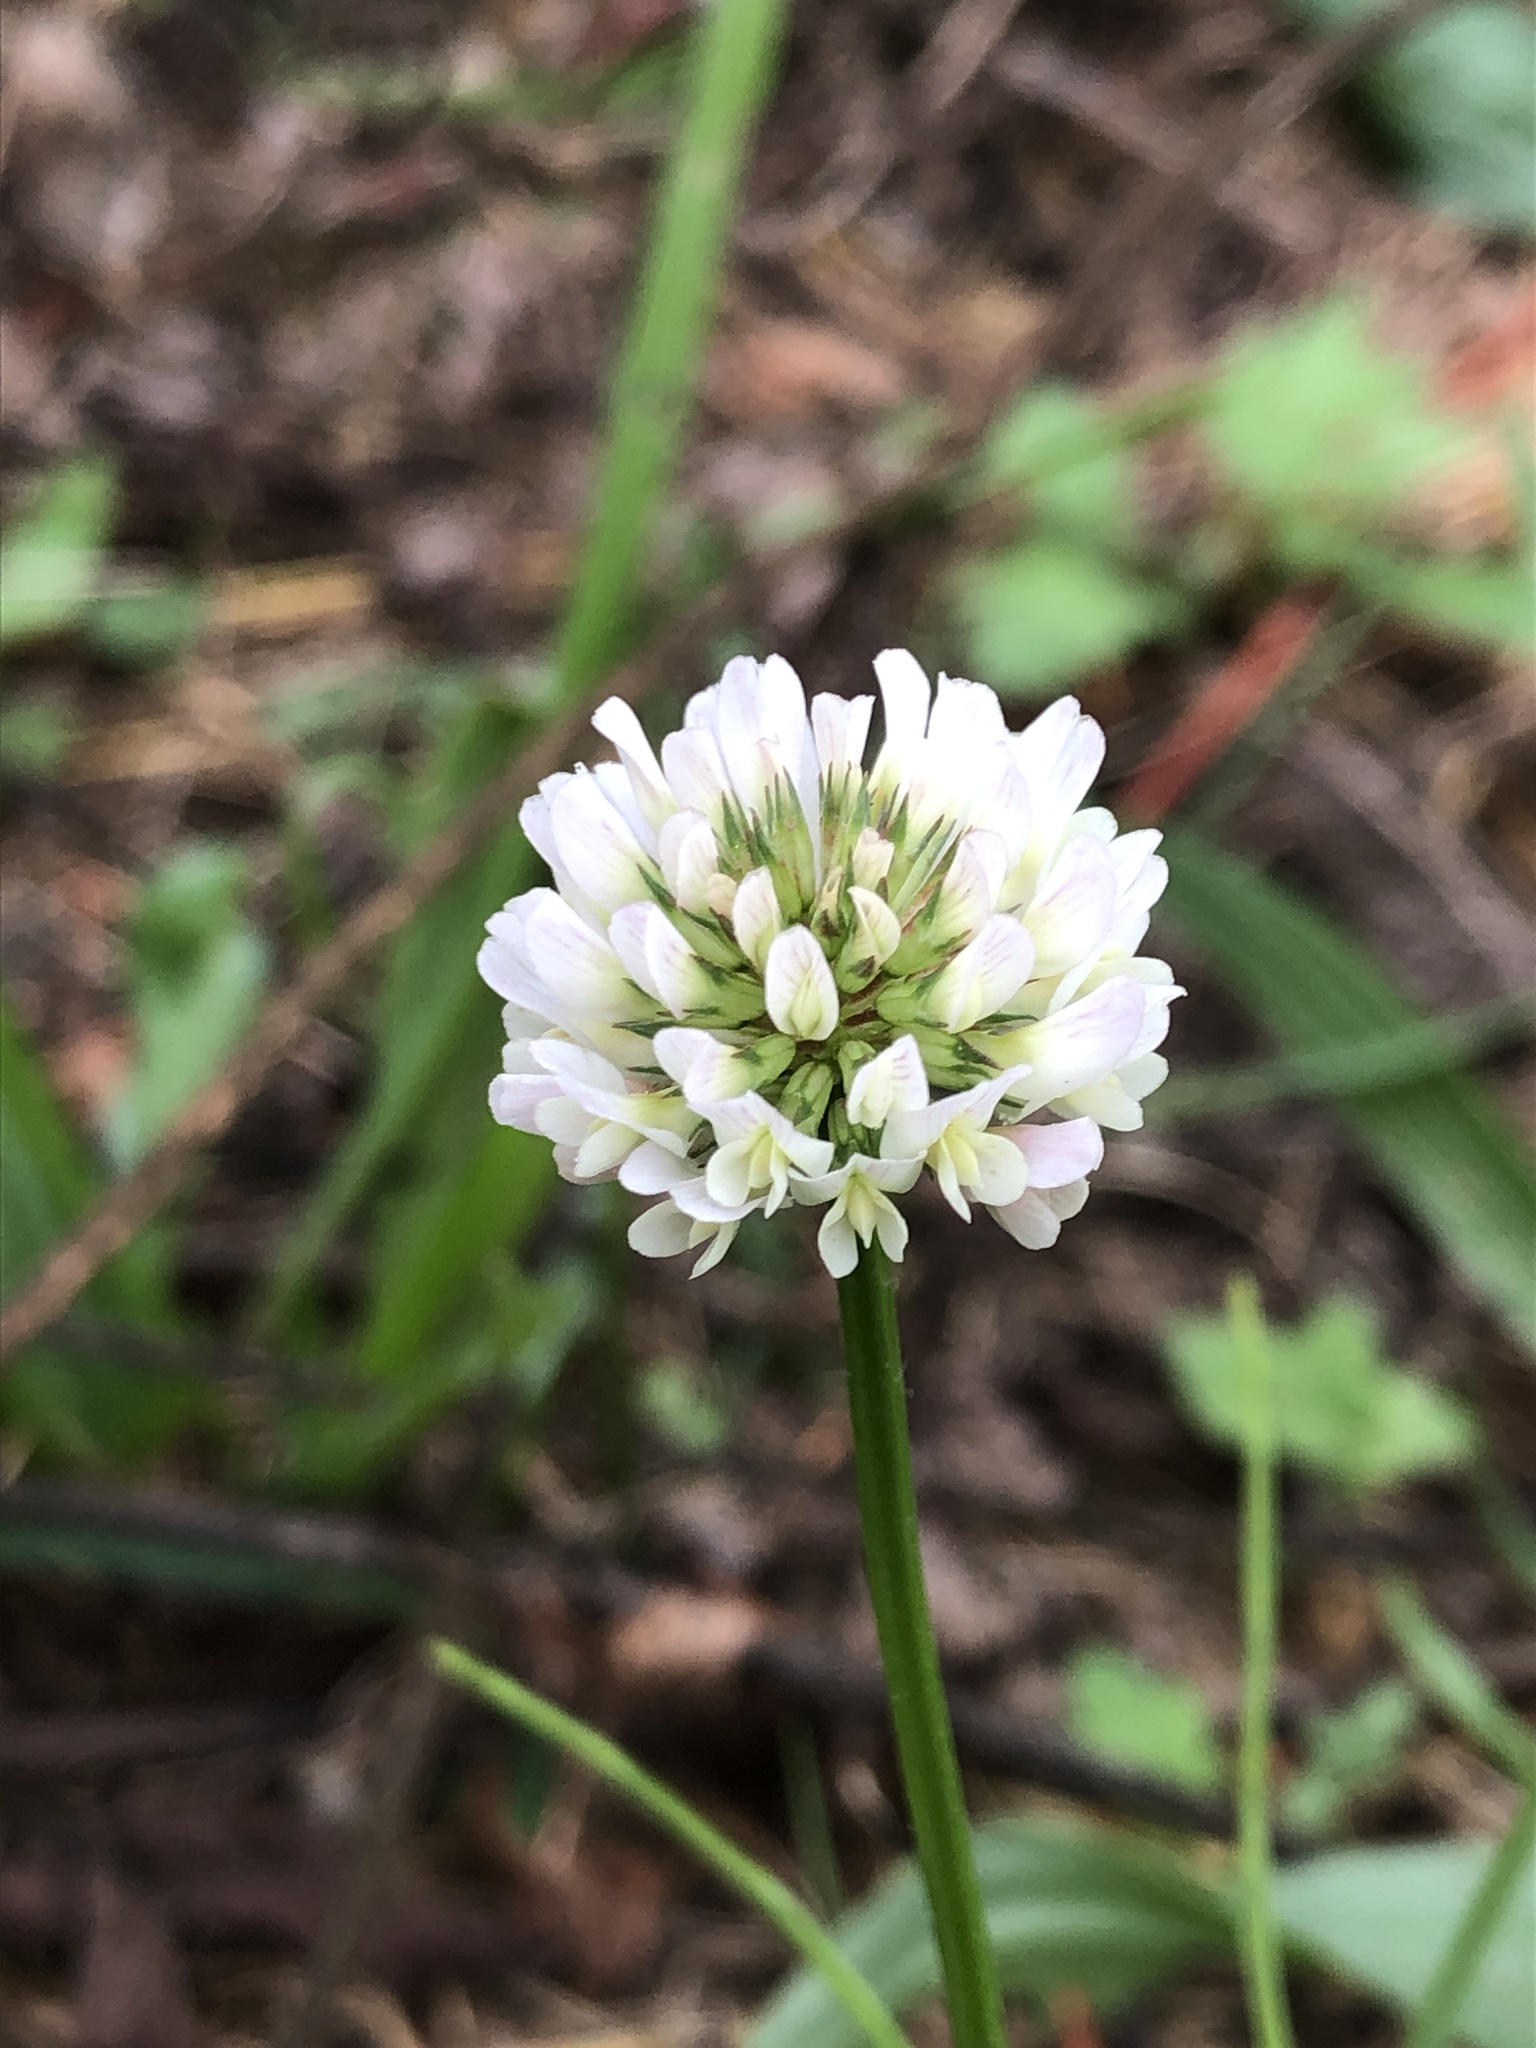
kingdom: Plantae
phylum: Tracheophyta
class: Magnoliopsida
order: Fabales
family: Fabaceae
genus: Trifolium
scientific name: Trifolium repens
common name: White clover
